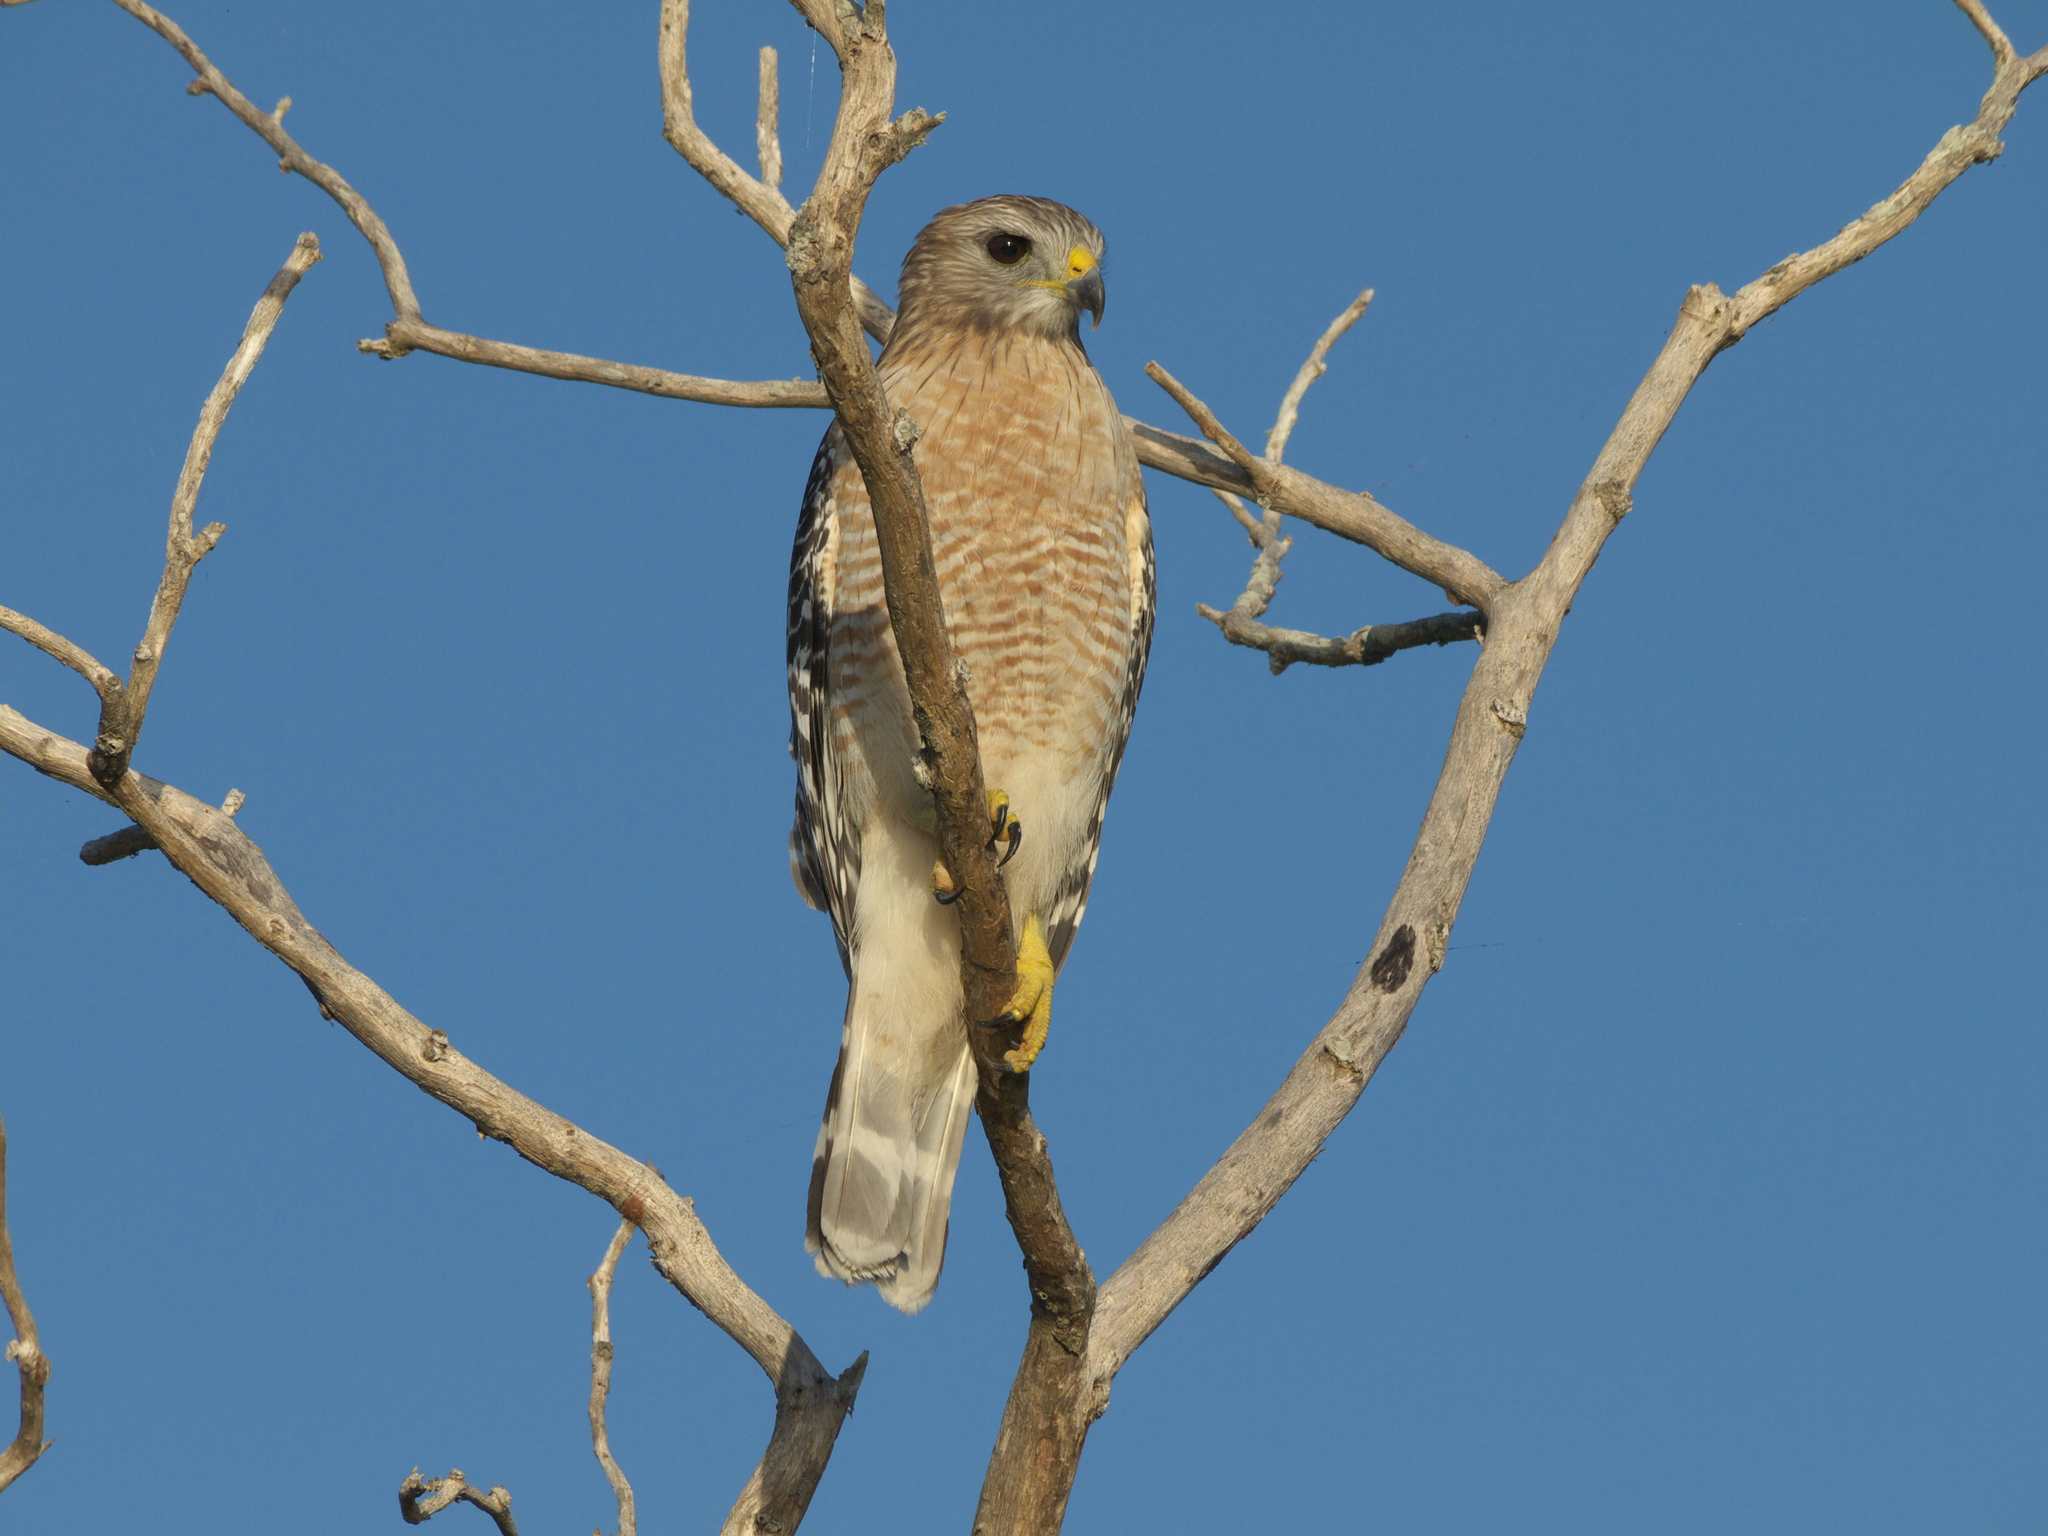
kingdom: Animalia
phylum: Chordata
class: Aves
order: Accipitriformes
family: Accipitridae
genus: Buteo
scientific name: Buteo lineatus
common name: Red-shouldered hawk
